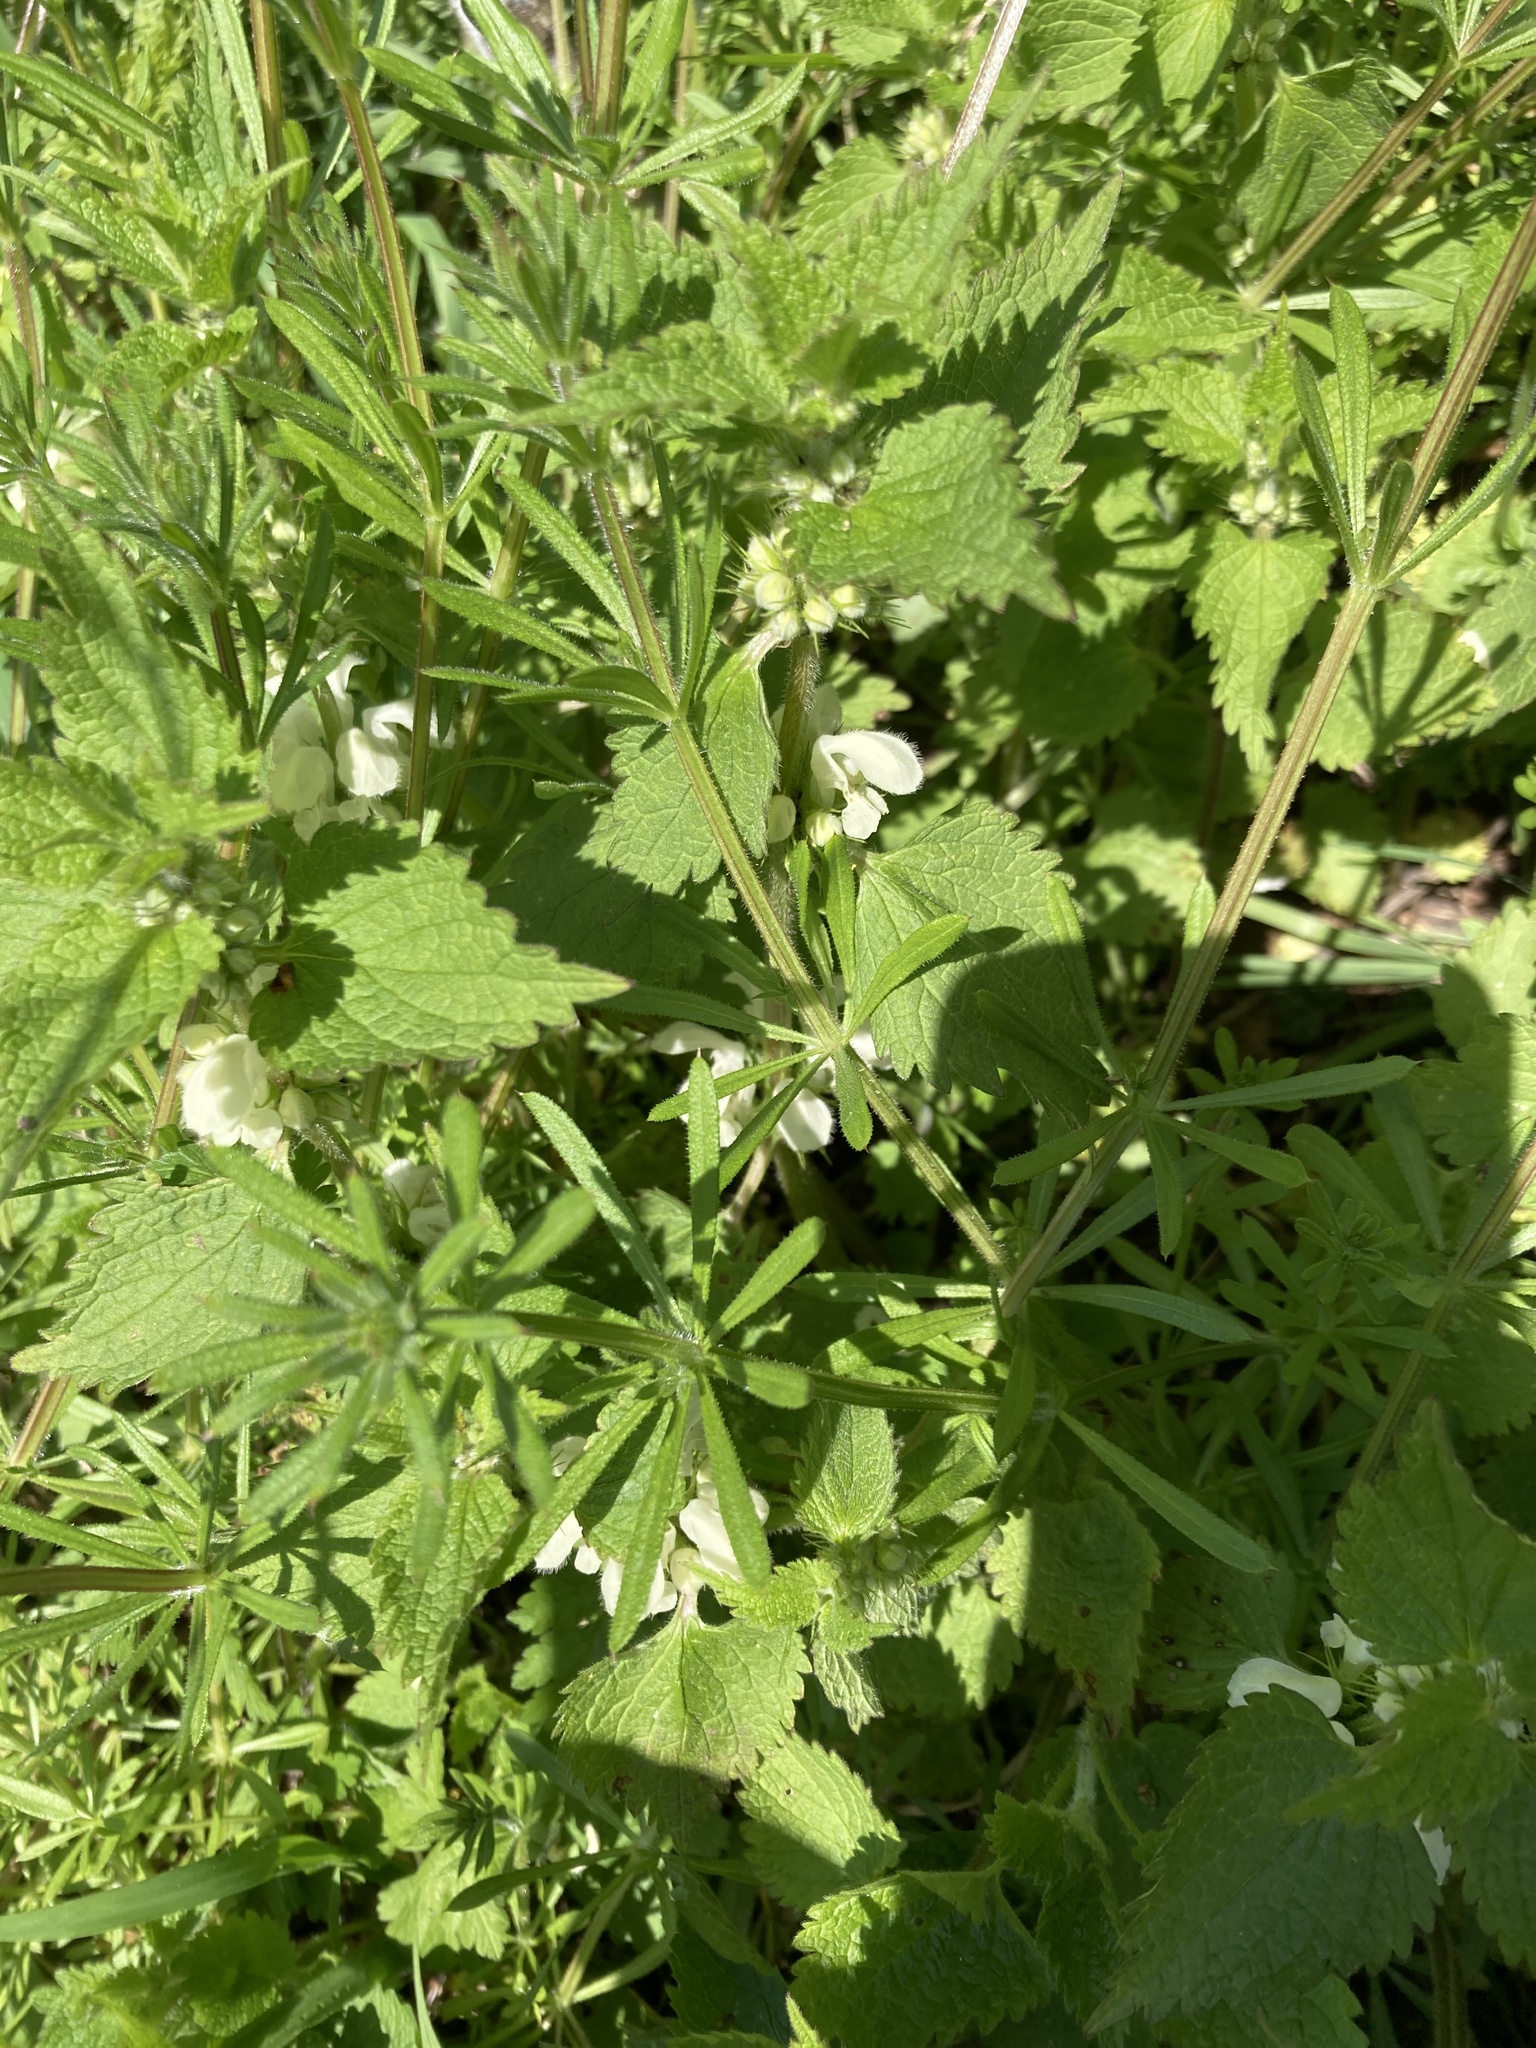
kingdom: Plantae
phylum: Tracheophyta
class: Magnoliopsida
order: Lamiales
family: Lamiaceae
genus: Lamium
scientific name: Lamium album
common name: White dead-nettle
